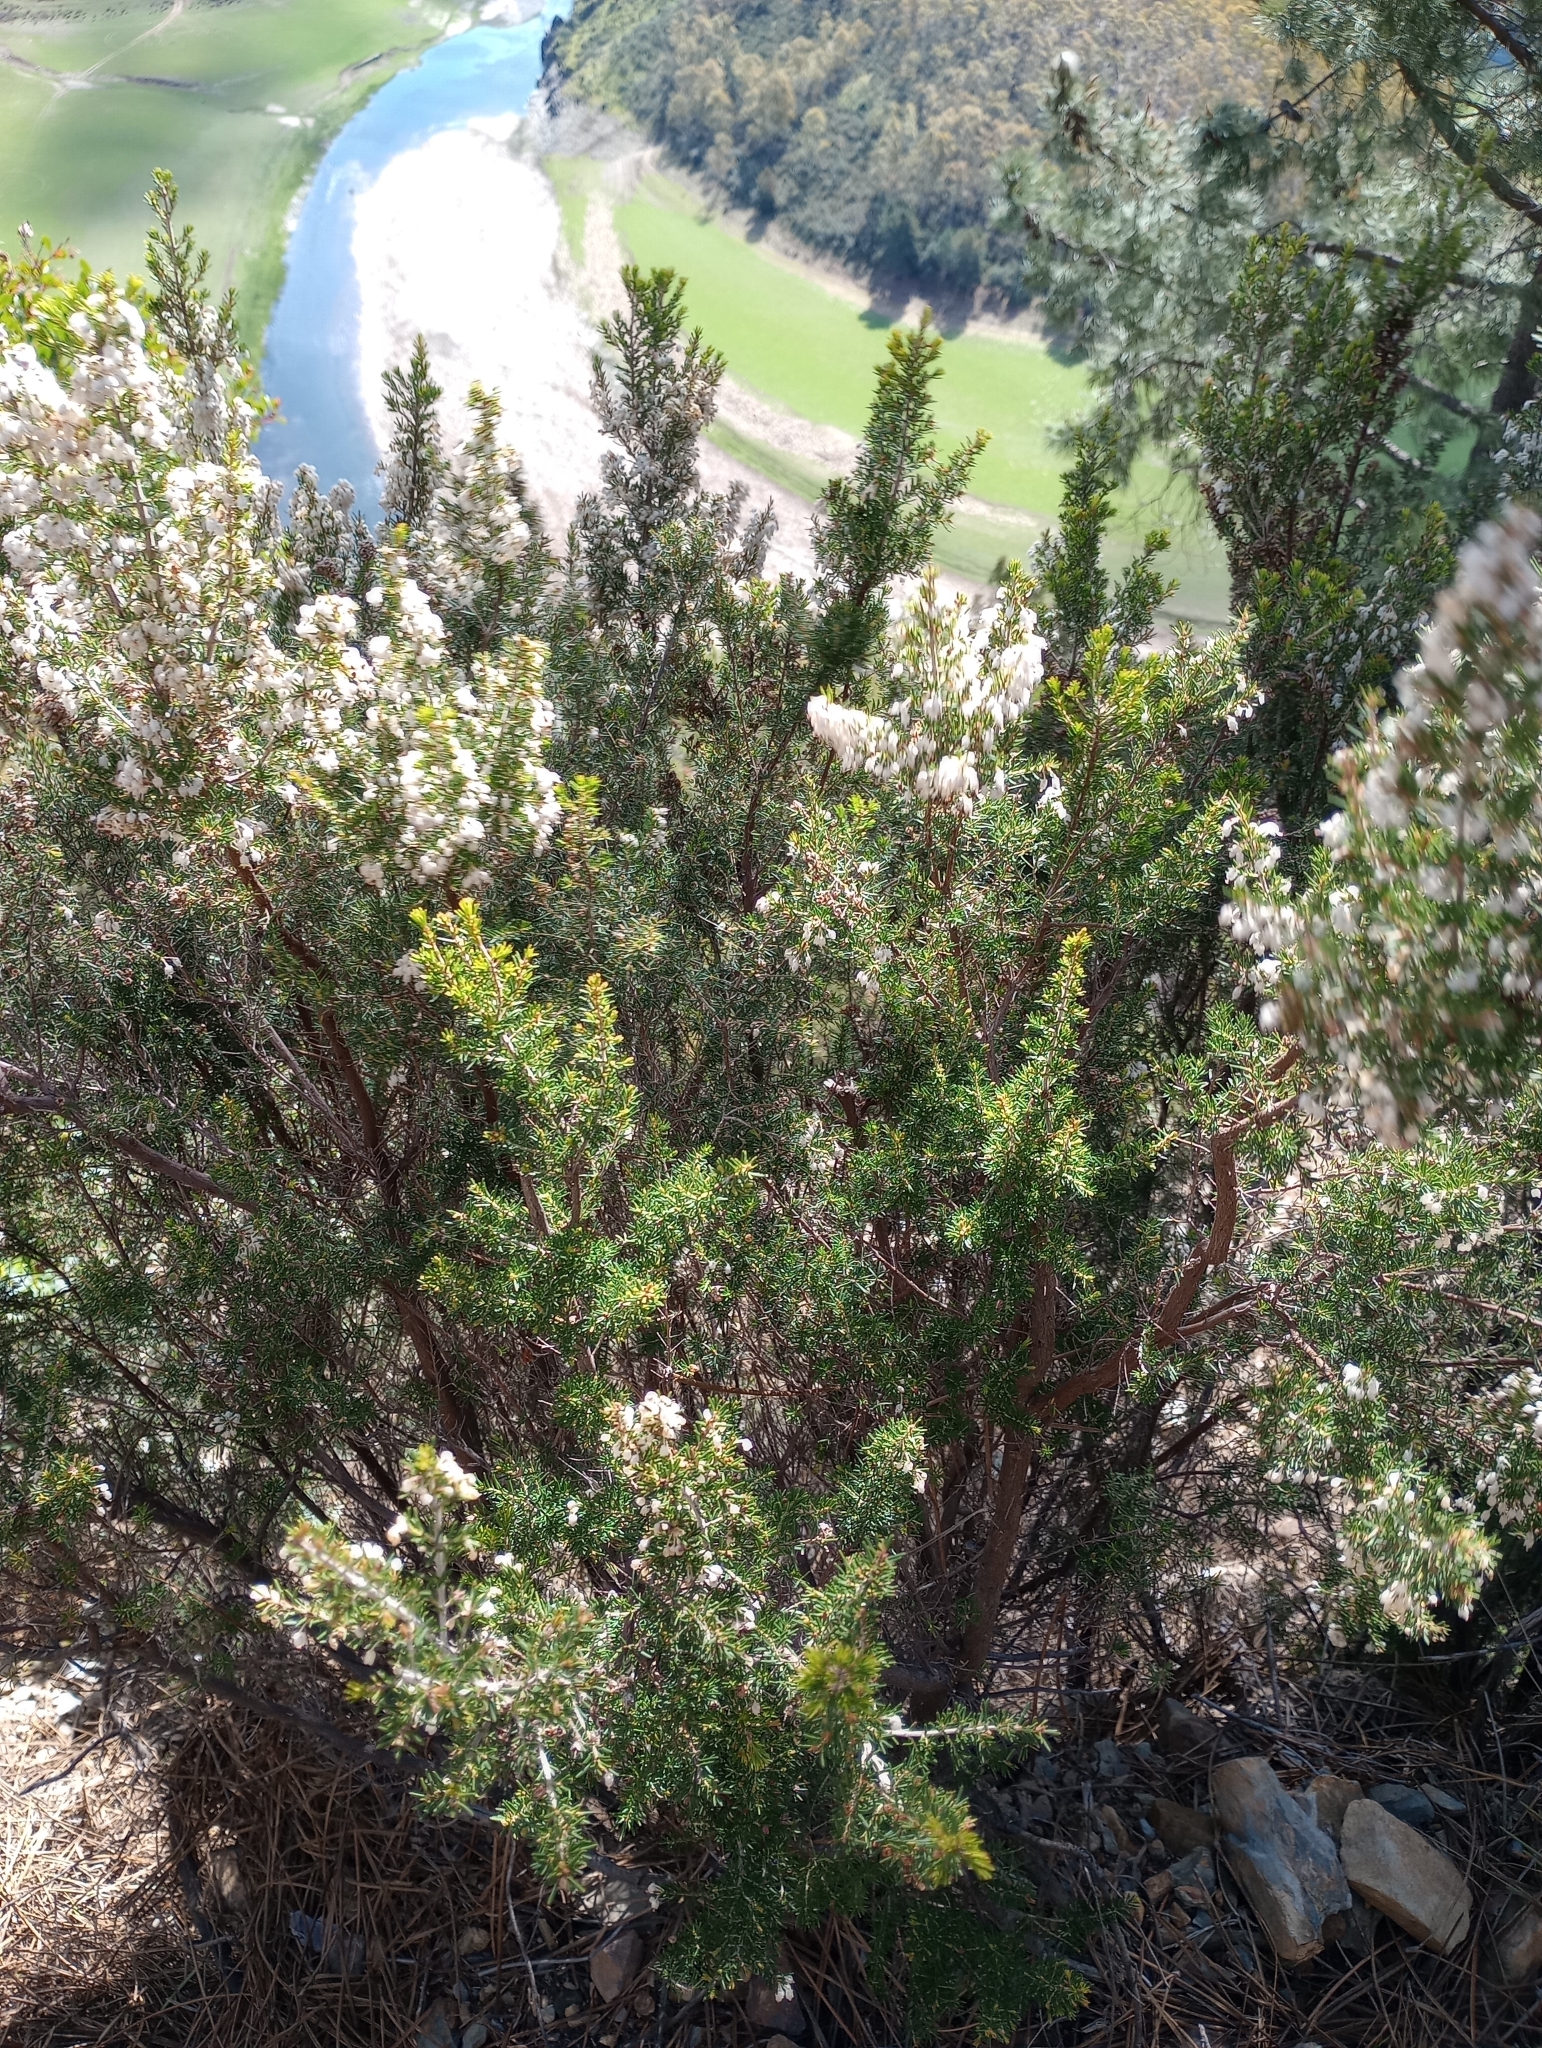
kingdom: Plantae
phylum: Tracheophyta
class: Magnoliopsida
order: Ericales
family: Ericaceae
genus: Erica
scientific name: Erica arborea
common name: Tree heath
